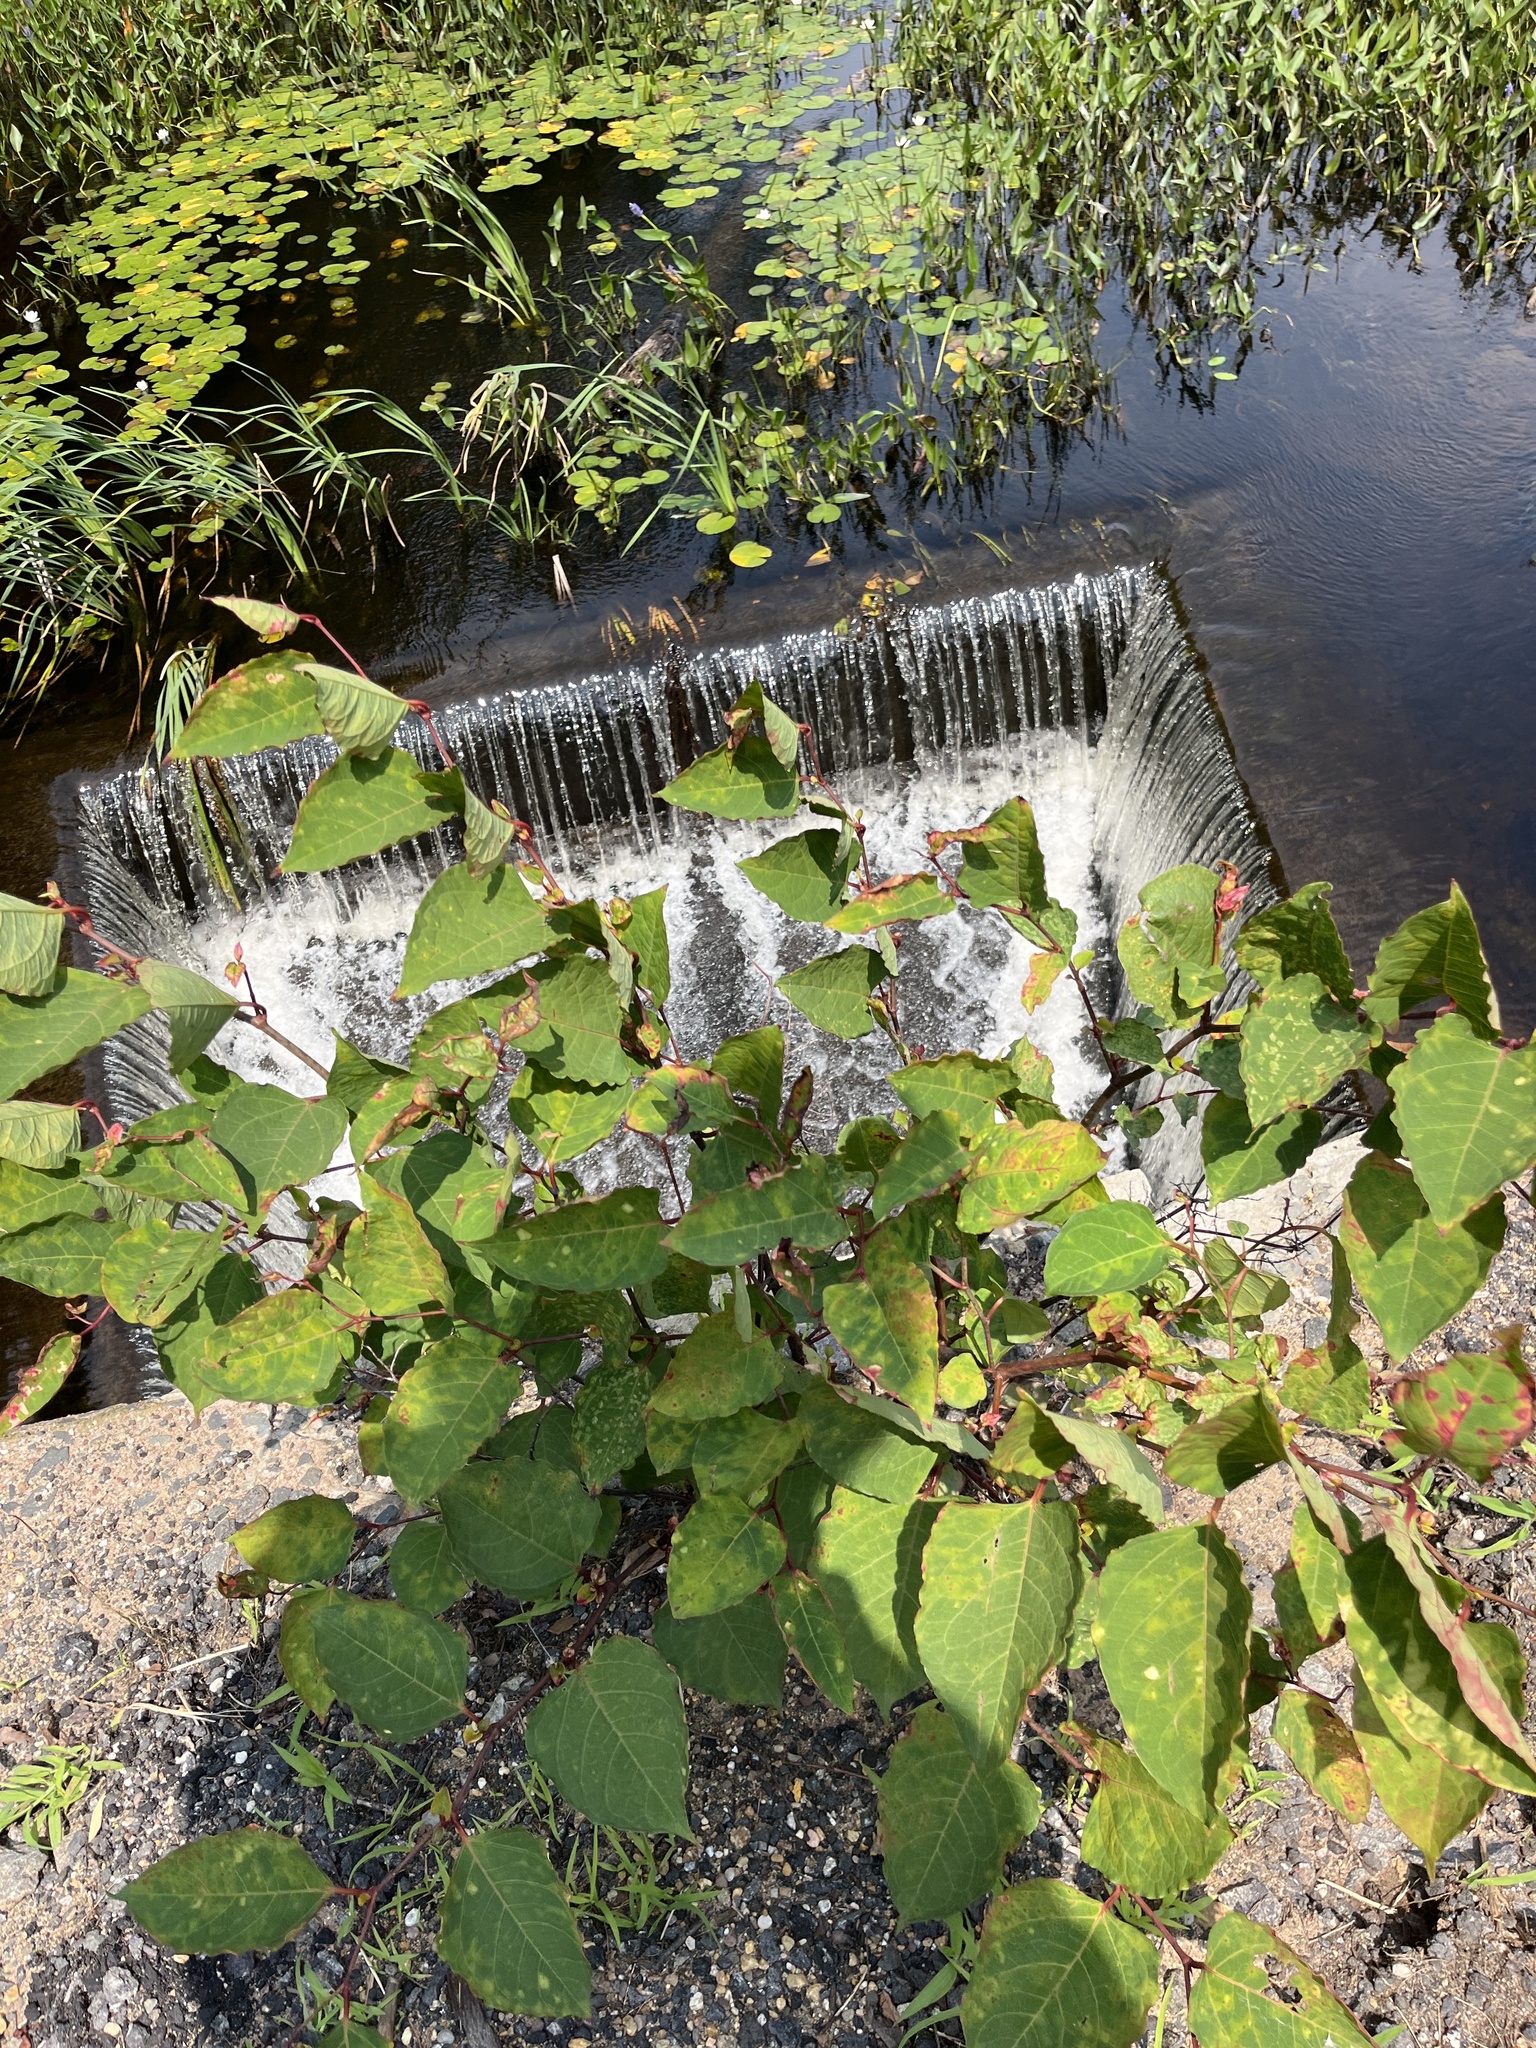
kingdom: Plantae
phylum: Tracheophyta
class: Magnoliopsida
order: Caryophyllales
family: Polygonaceae
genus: Reynoutria
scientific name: Reynoutria japonica
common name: Japanese knotweed
